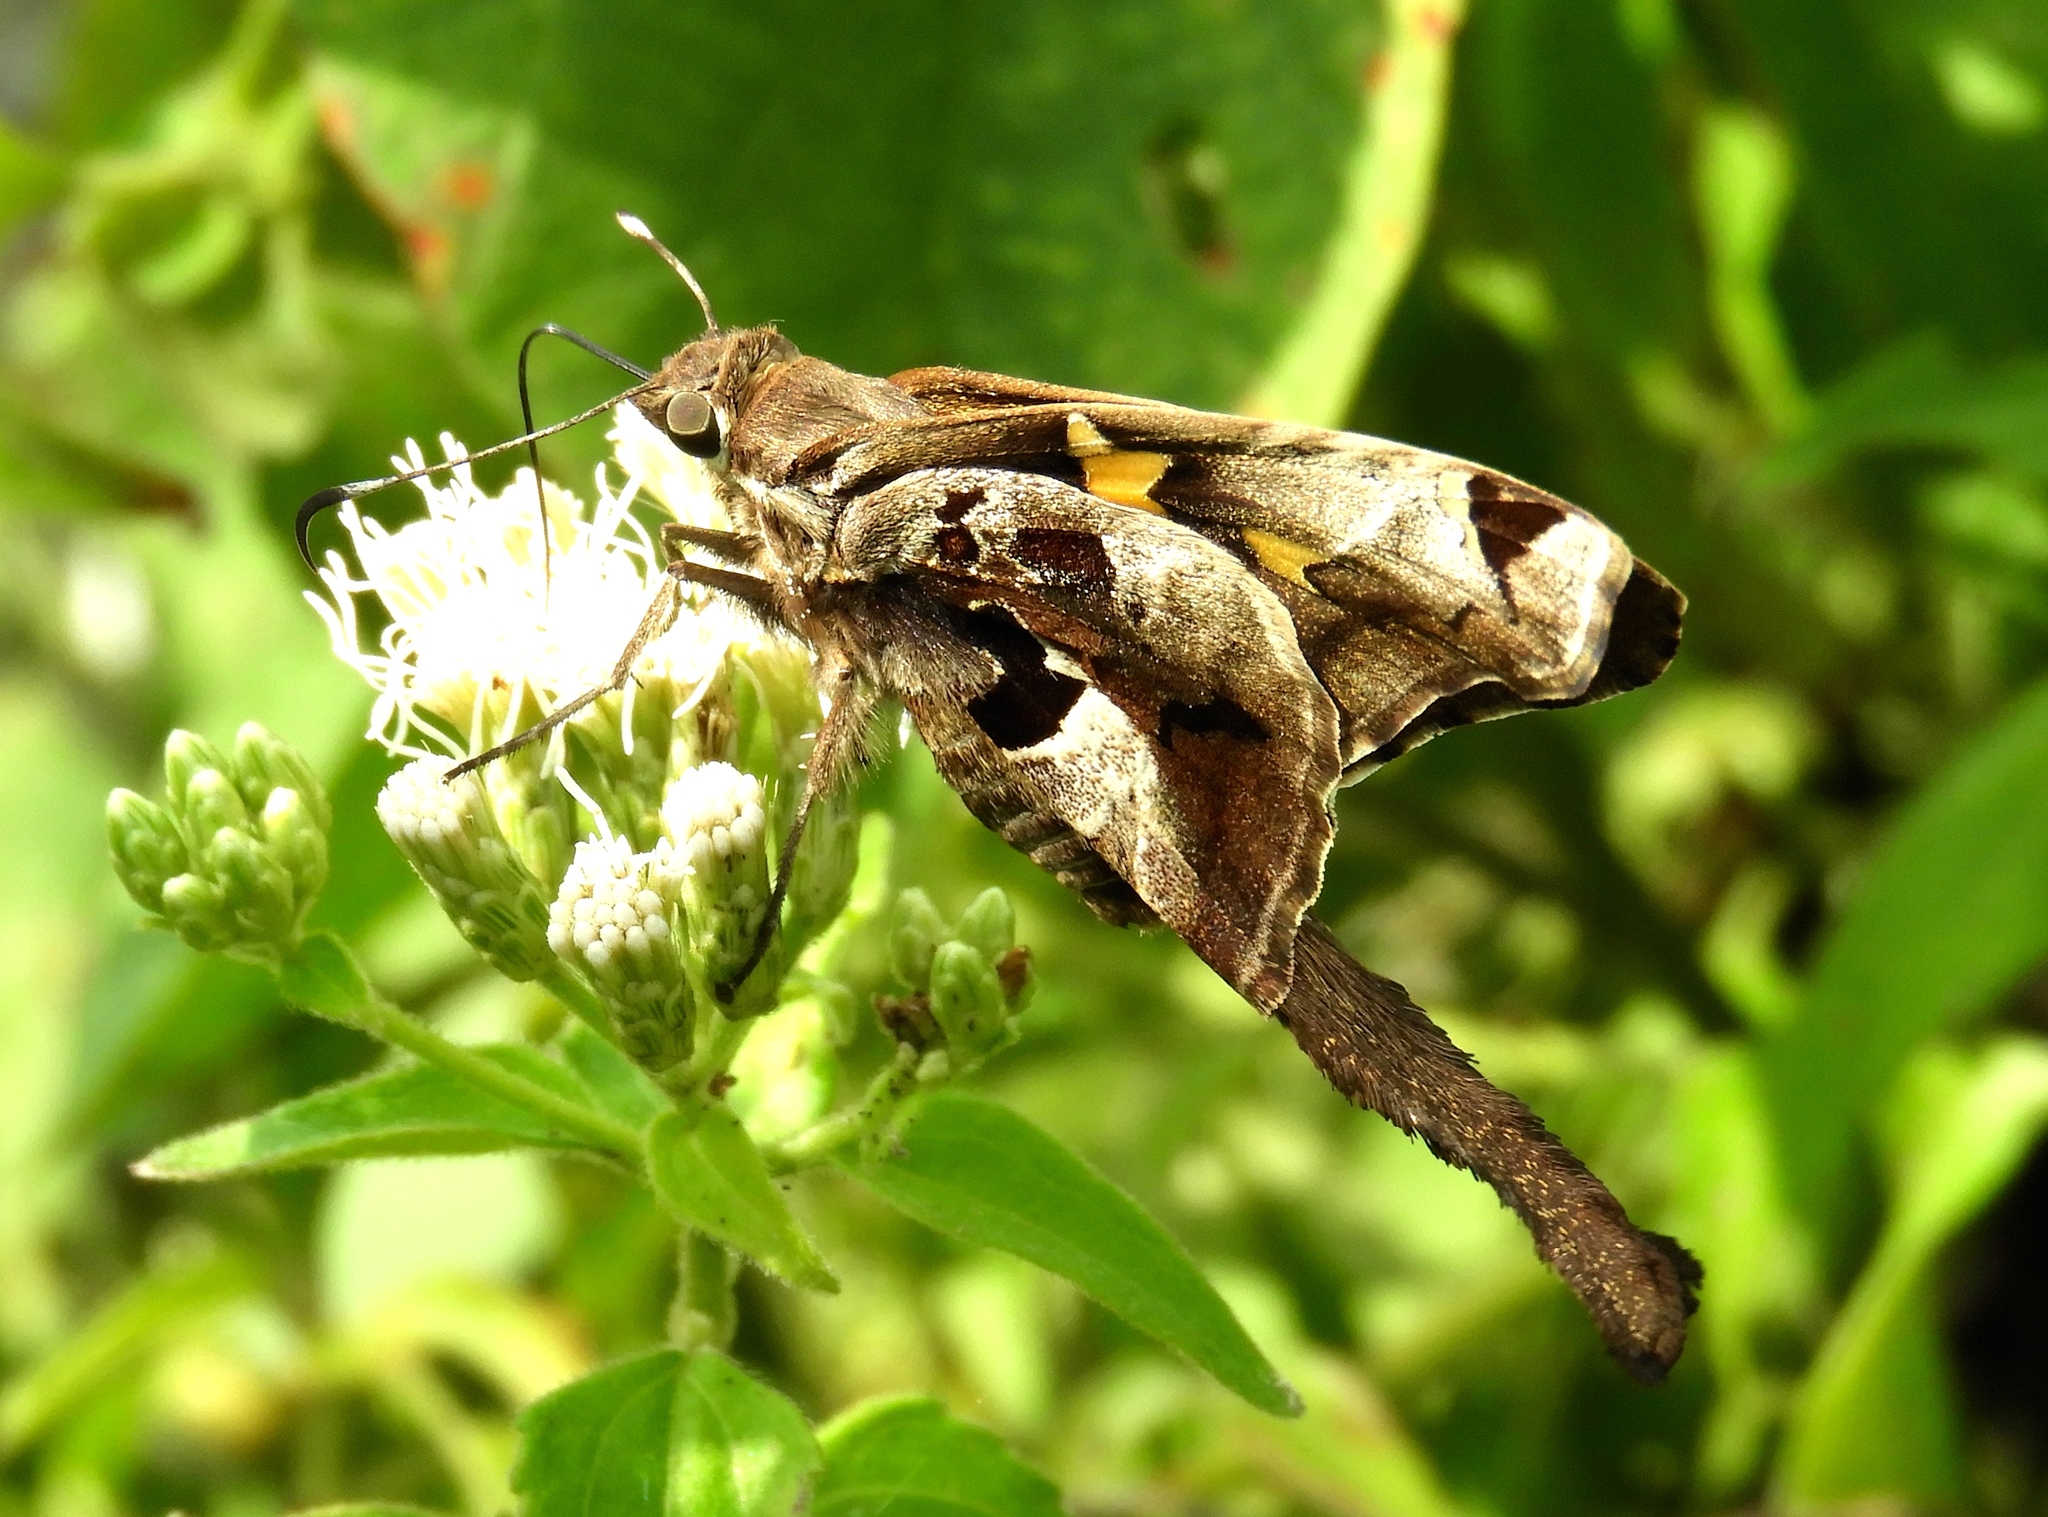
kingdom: Animalia
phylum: Arthropoda
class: Insecta
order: Lepidoptera
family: Hesperiidae
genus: Chioides
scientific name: Chioides zilpa
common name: Zilpa longtail
